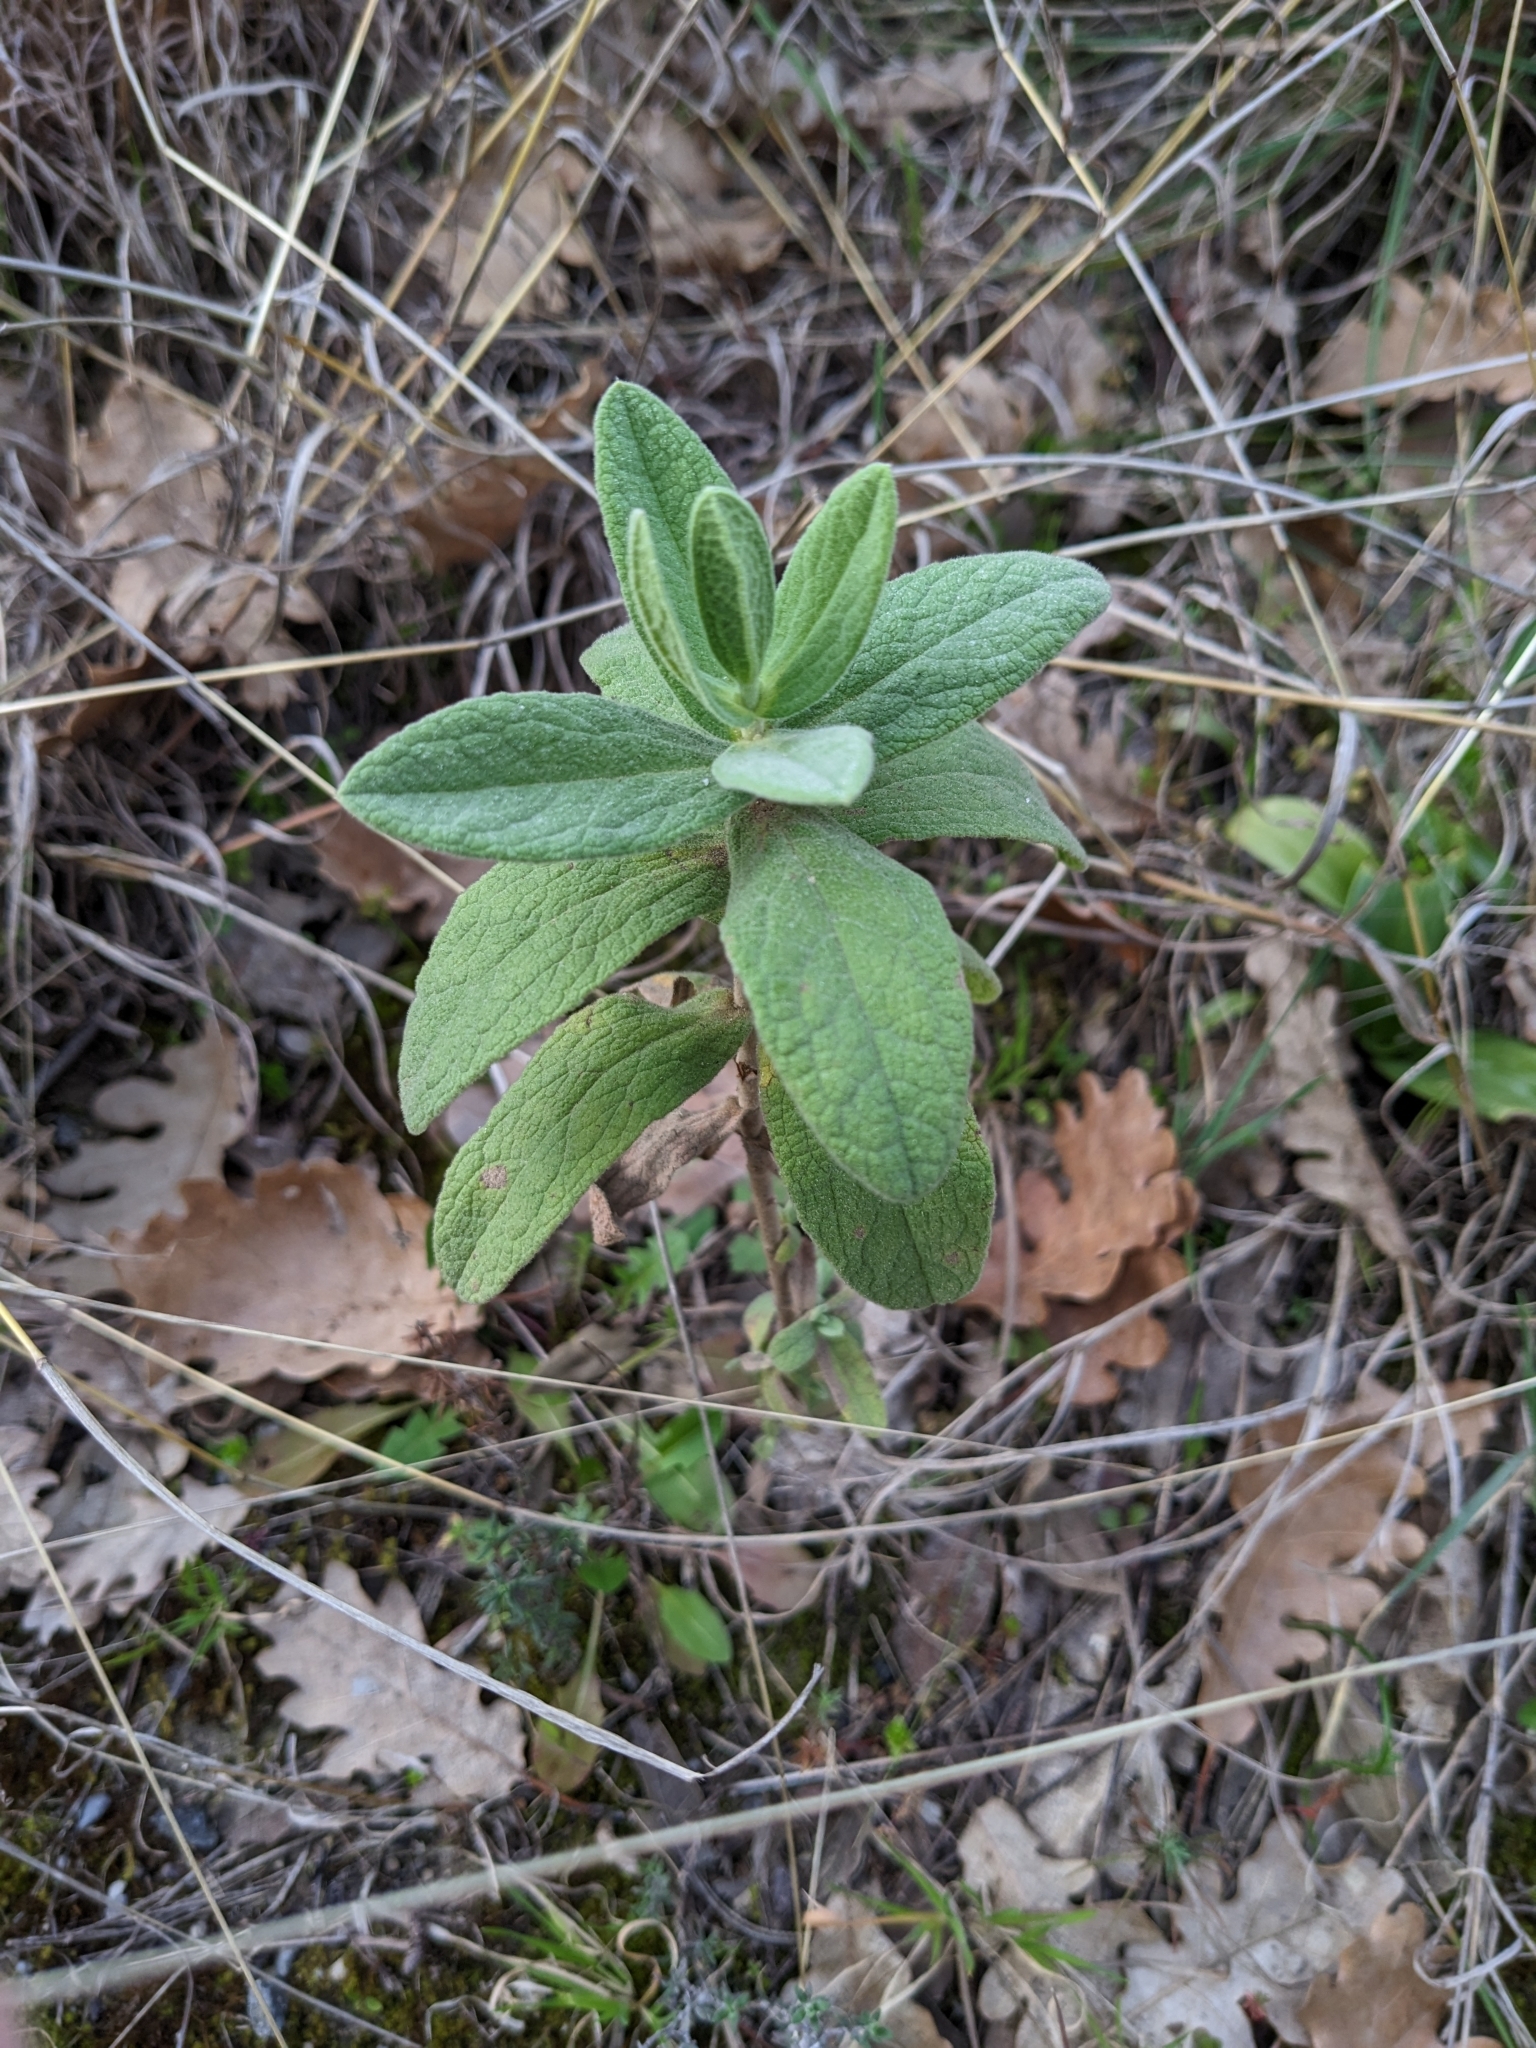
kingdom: Plantae
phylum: Tracheophyta
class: Magnoliopsida
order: Malvales
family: Cistaceae
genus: Cistus
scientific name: Cistus albidus
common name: White-leaf rock-rose
